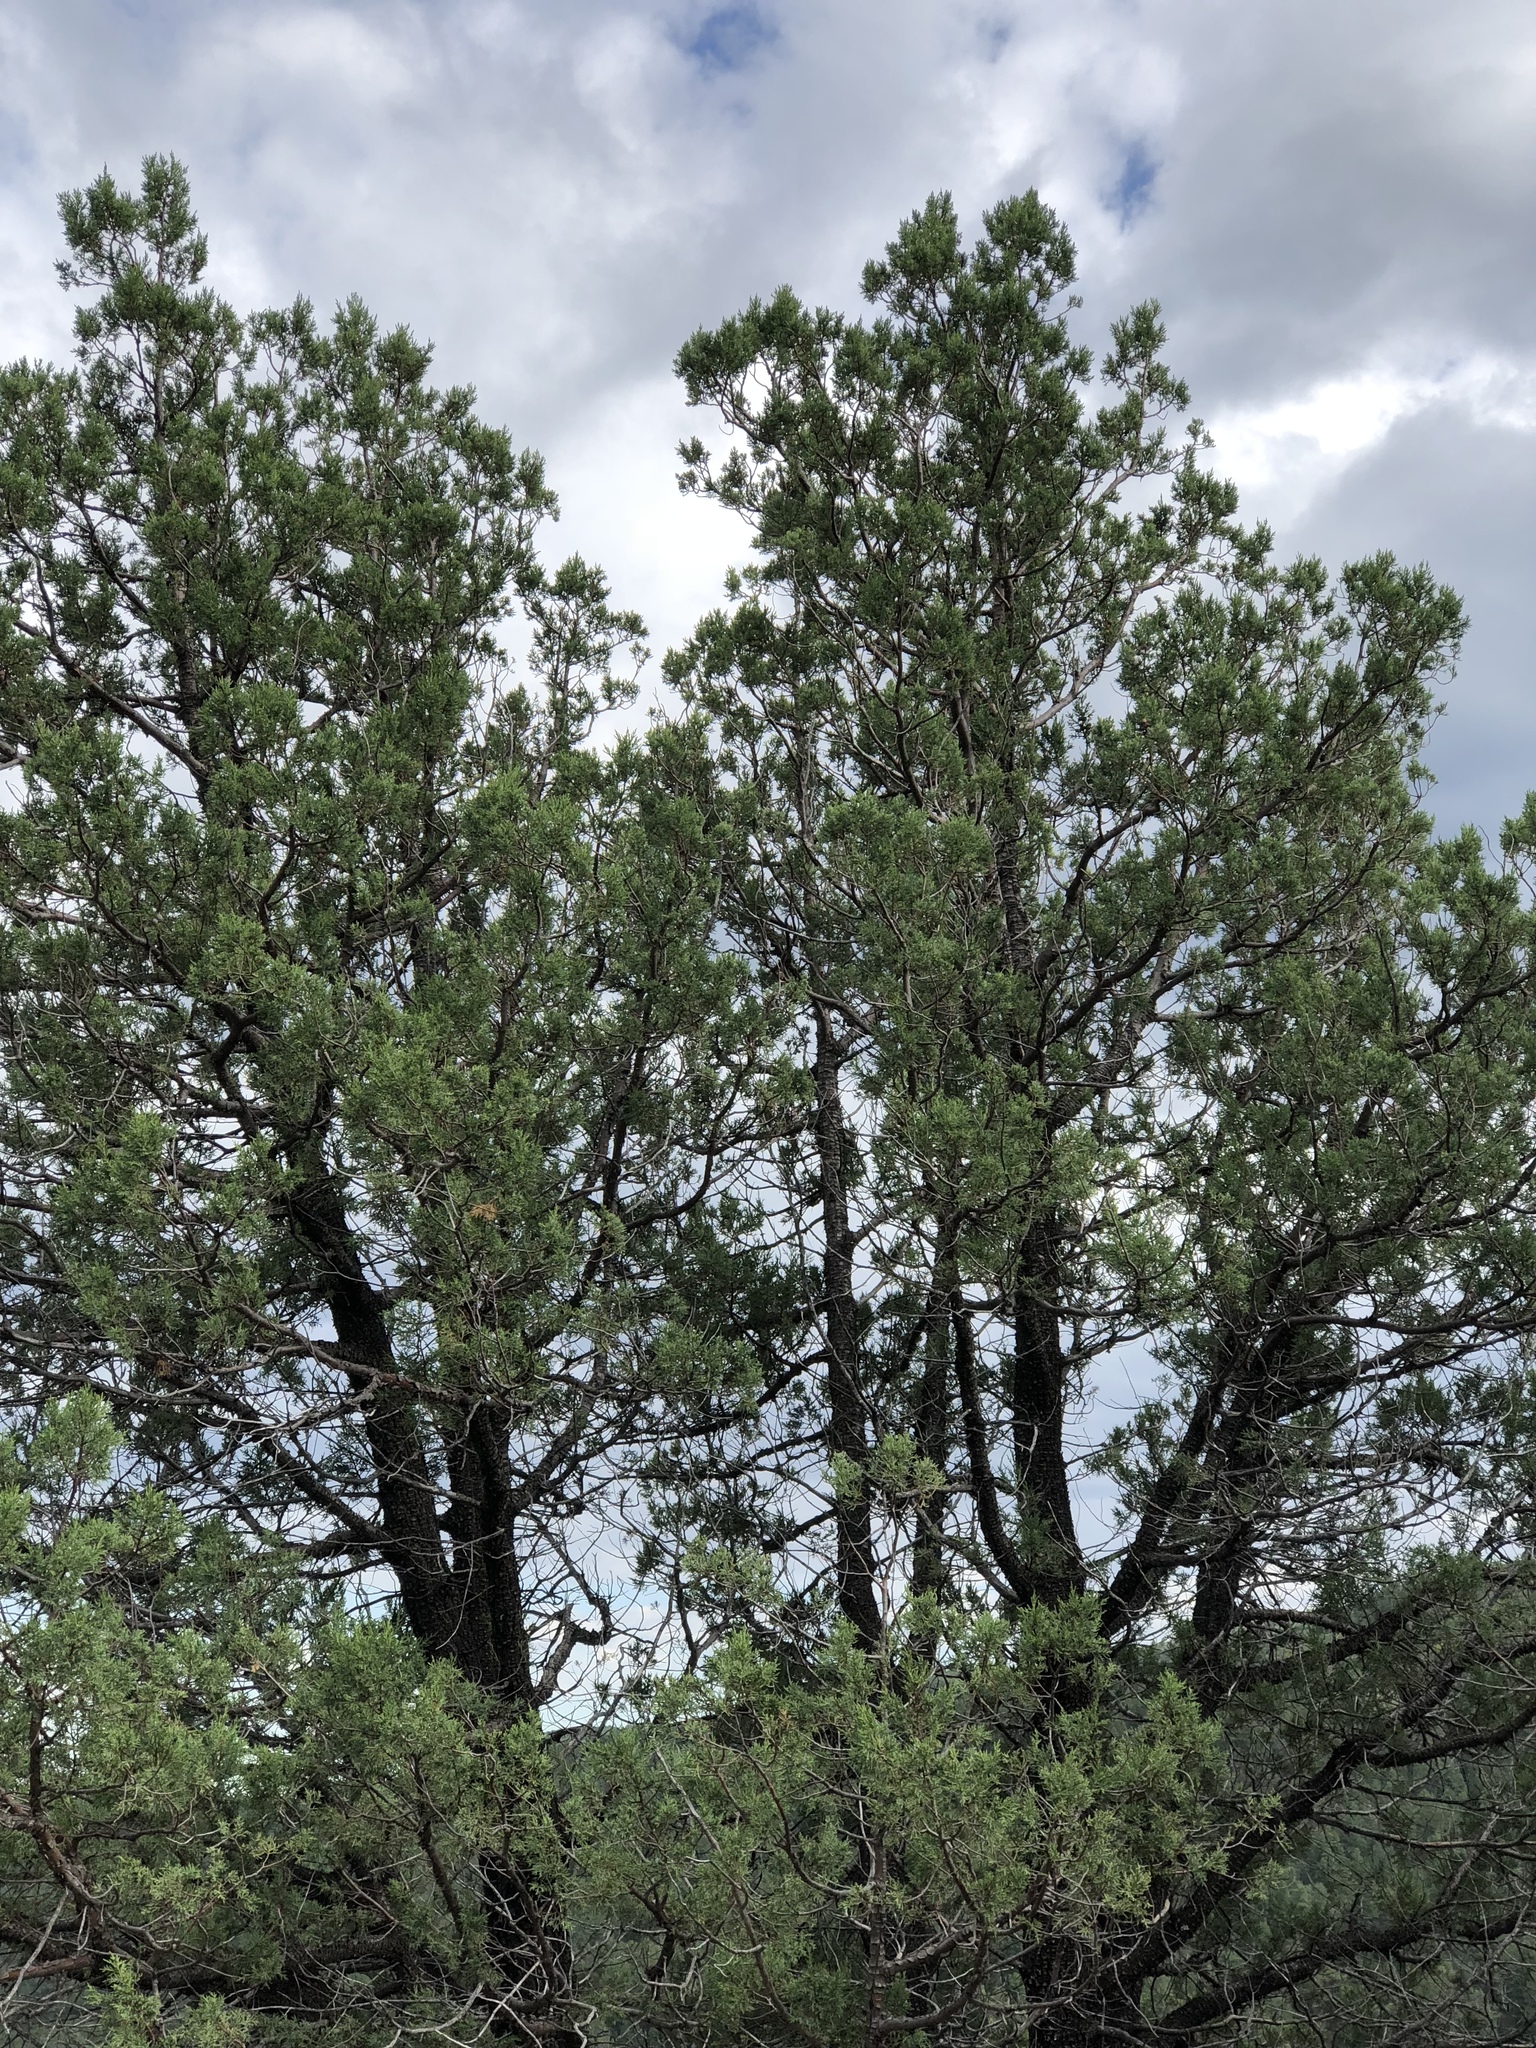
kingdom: Plantae
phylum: Tracheophyta
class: Pinopsida
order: Pinales
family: Cupressaceae
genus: Juniperus
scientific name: Juniperus deppeana
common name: Alligator juniper
